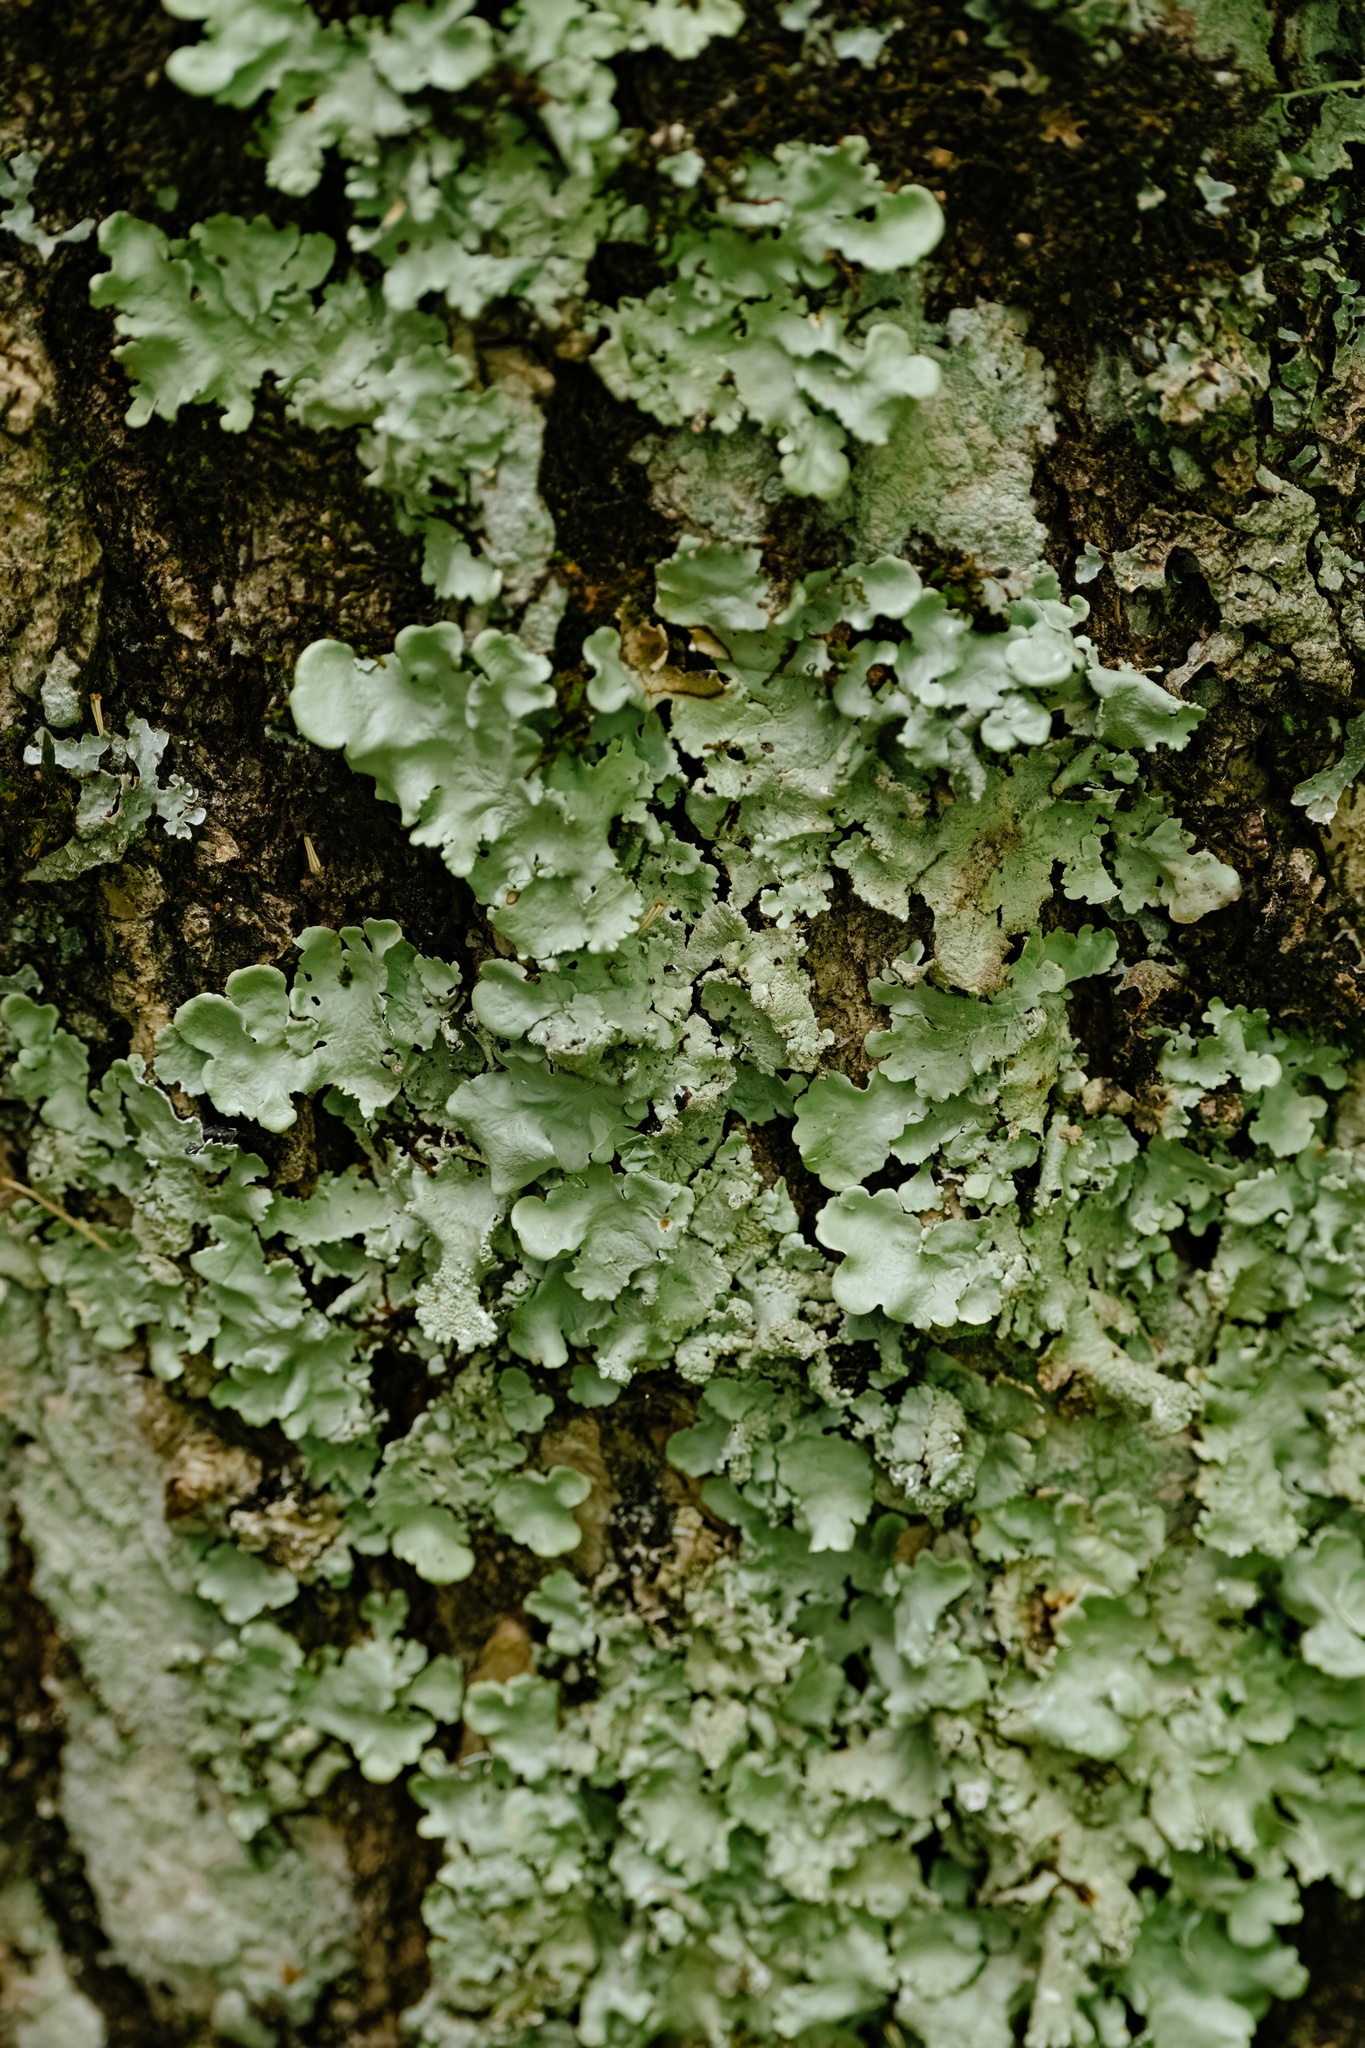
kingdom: Fungi
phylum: Ascomycota
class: Lecanoromycetes
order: Lecanorales
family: Parmeliaceae
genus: Flavoparmelia
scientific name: Flavoparmelia caperata
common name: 40-mile per hour lichen
